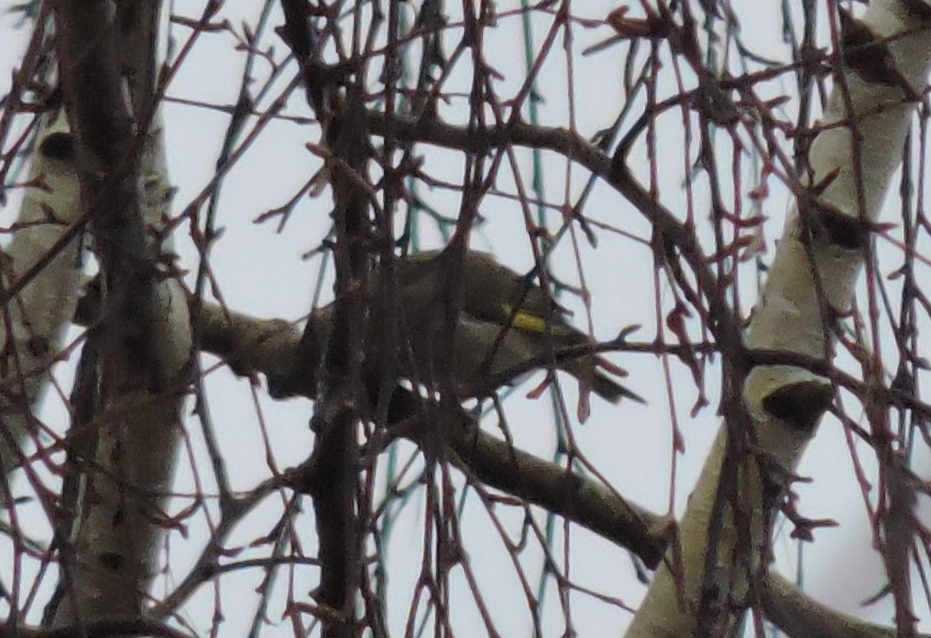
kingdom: Plantae
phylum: Tracheophyta
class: Liliopsida
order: Poales
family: Poaceae
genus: Chloris
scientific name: Chloris chloris
